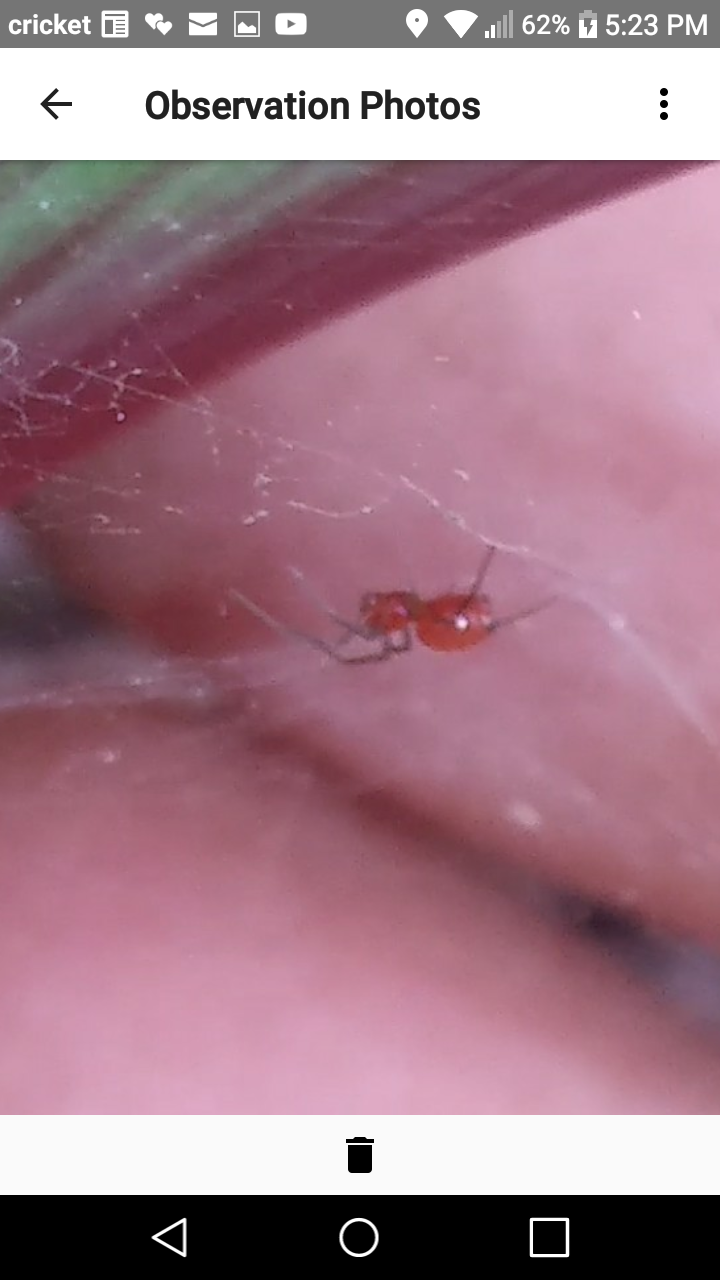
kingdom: Animalia
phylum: Arthropoda
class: Arachnida
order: Araneae
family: Linyphiidae
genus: Florinda
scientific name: Florinda coccinea
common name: Black-tailed red sheetweaver
